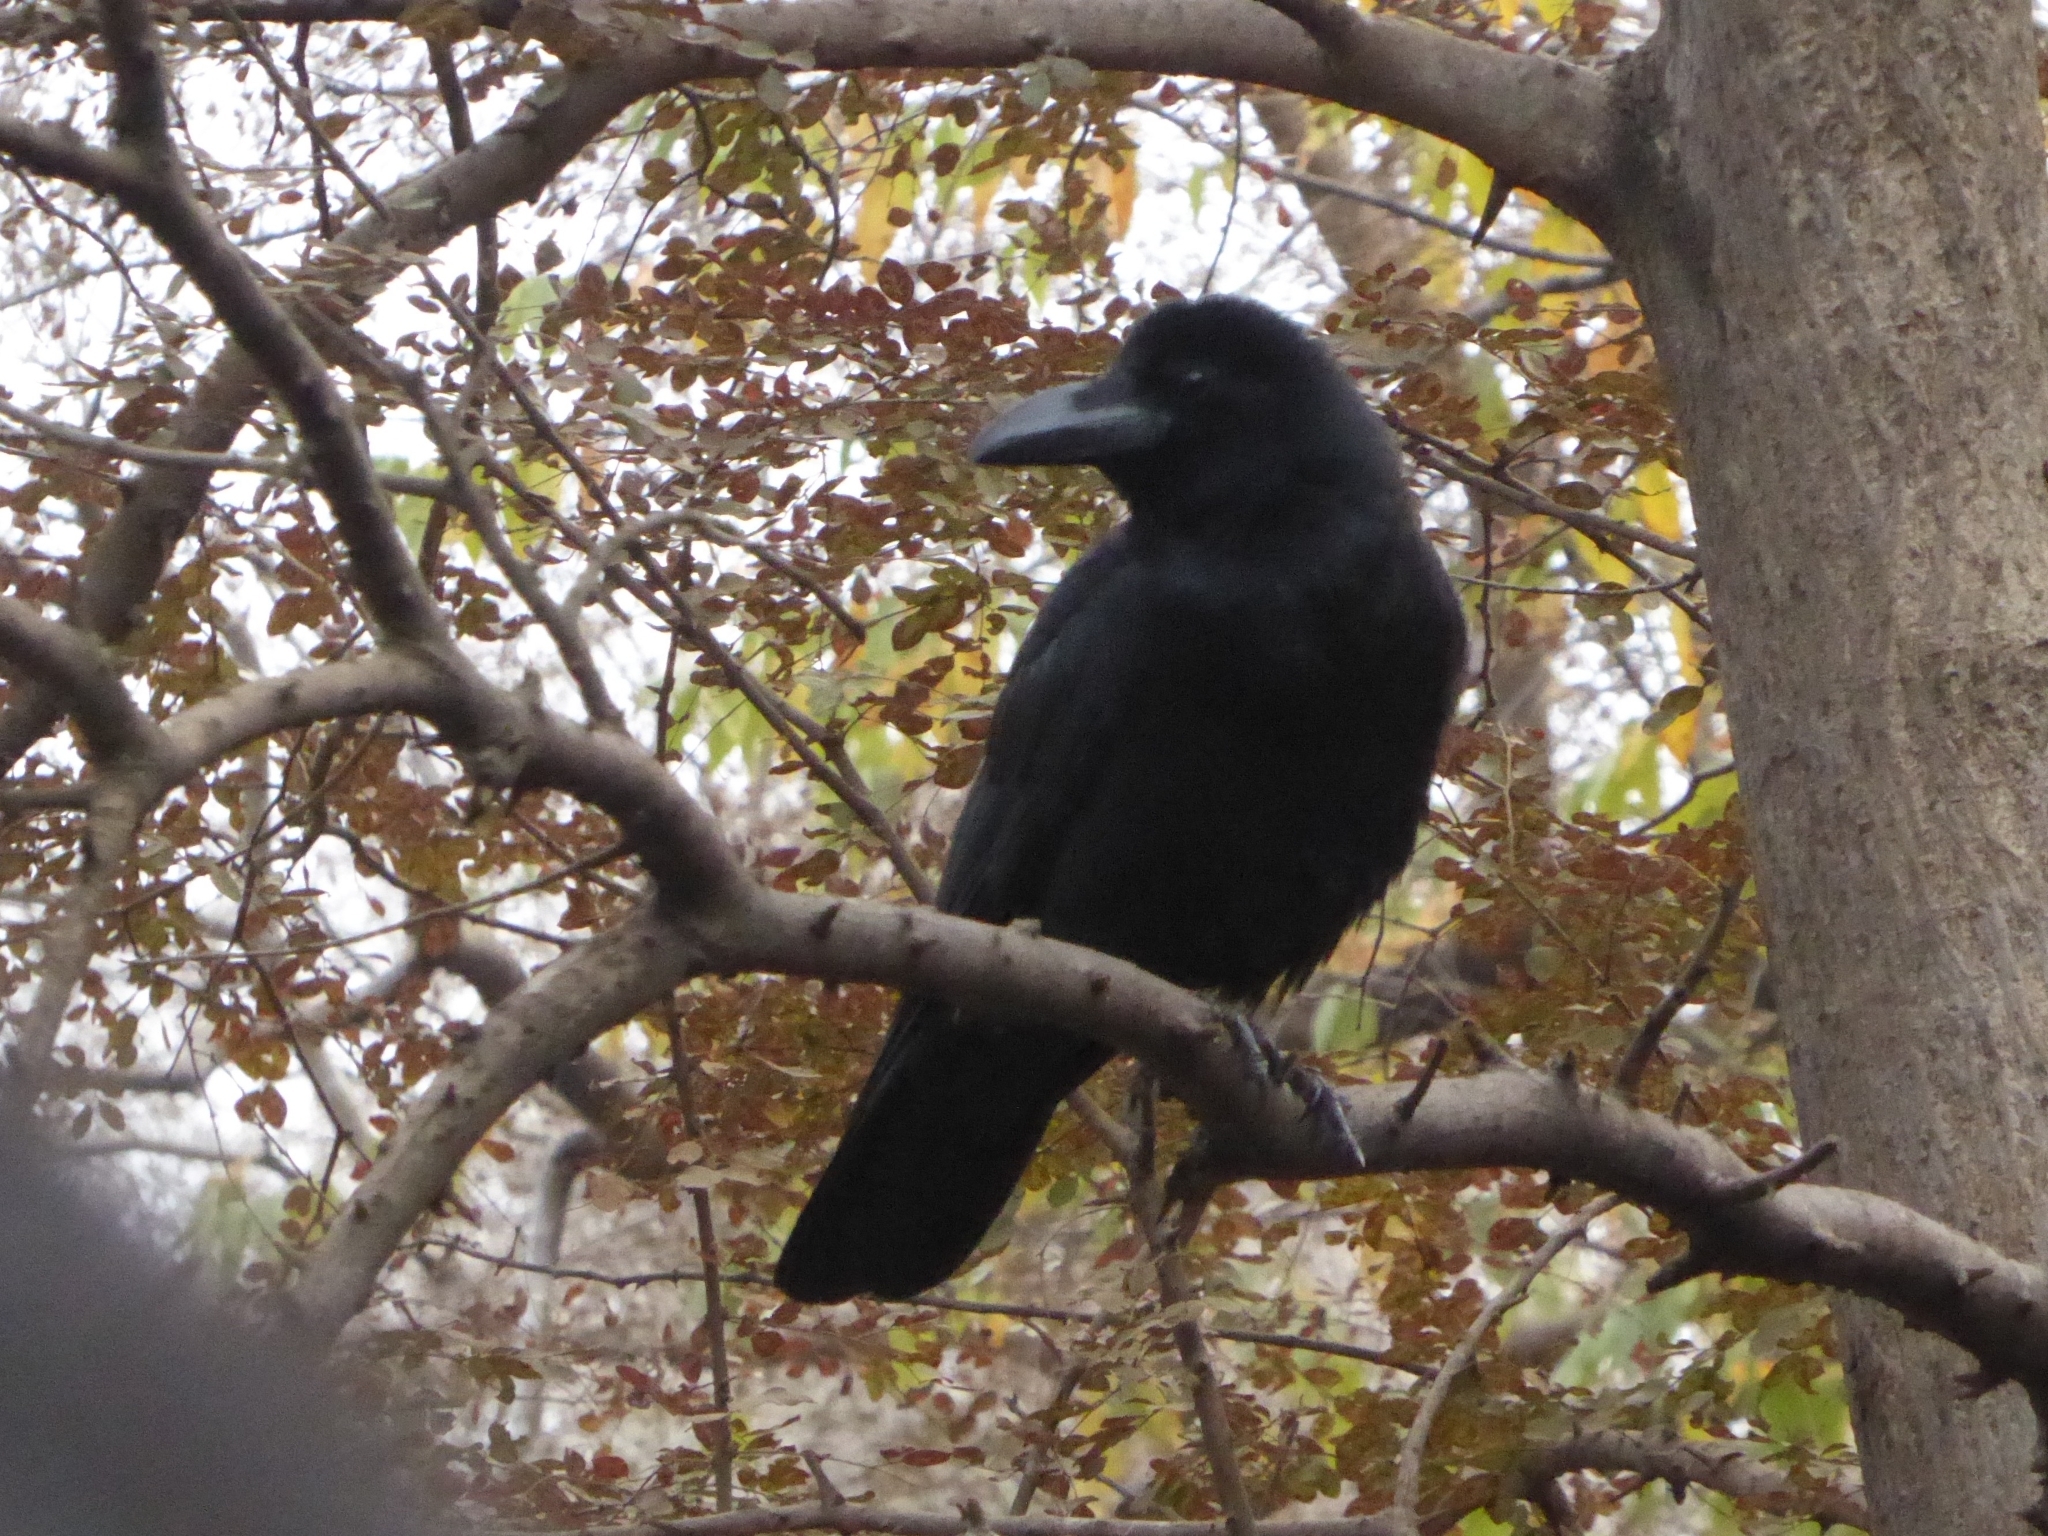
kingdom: Animalia
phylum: Chordata
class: Aves
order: Passeriformes
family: Corvidae
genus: Corvus
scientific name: Corvus macrorhynchos
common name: Large-billed crow
